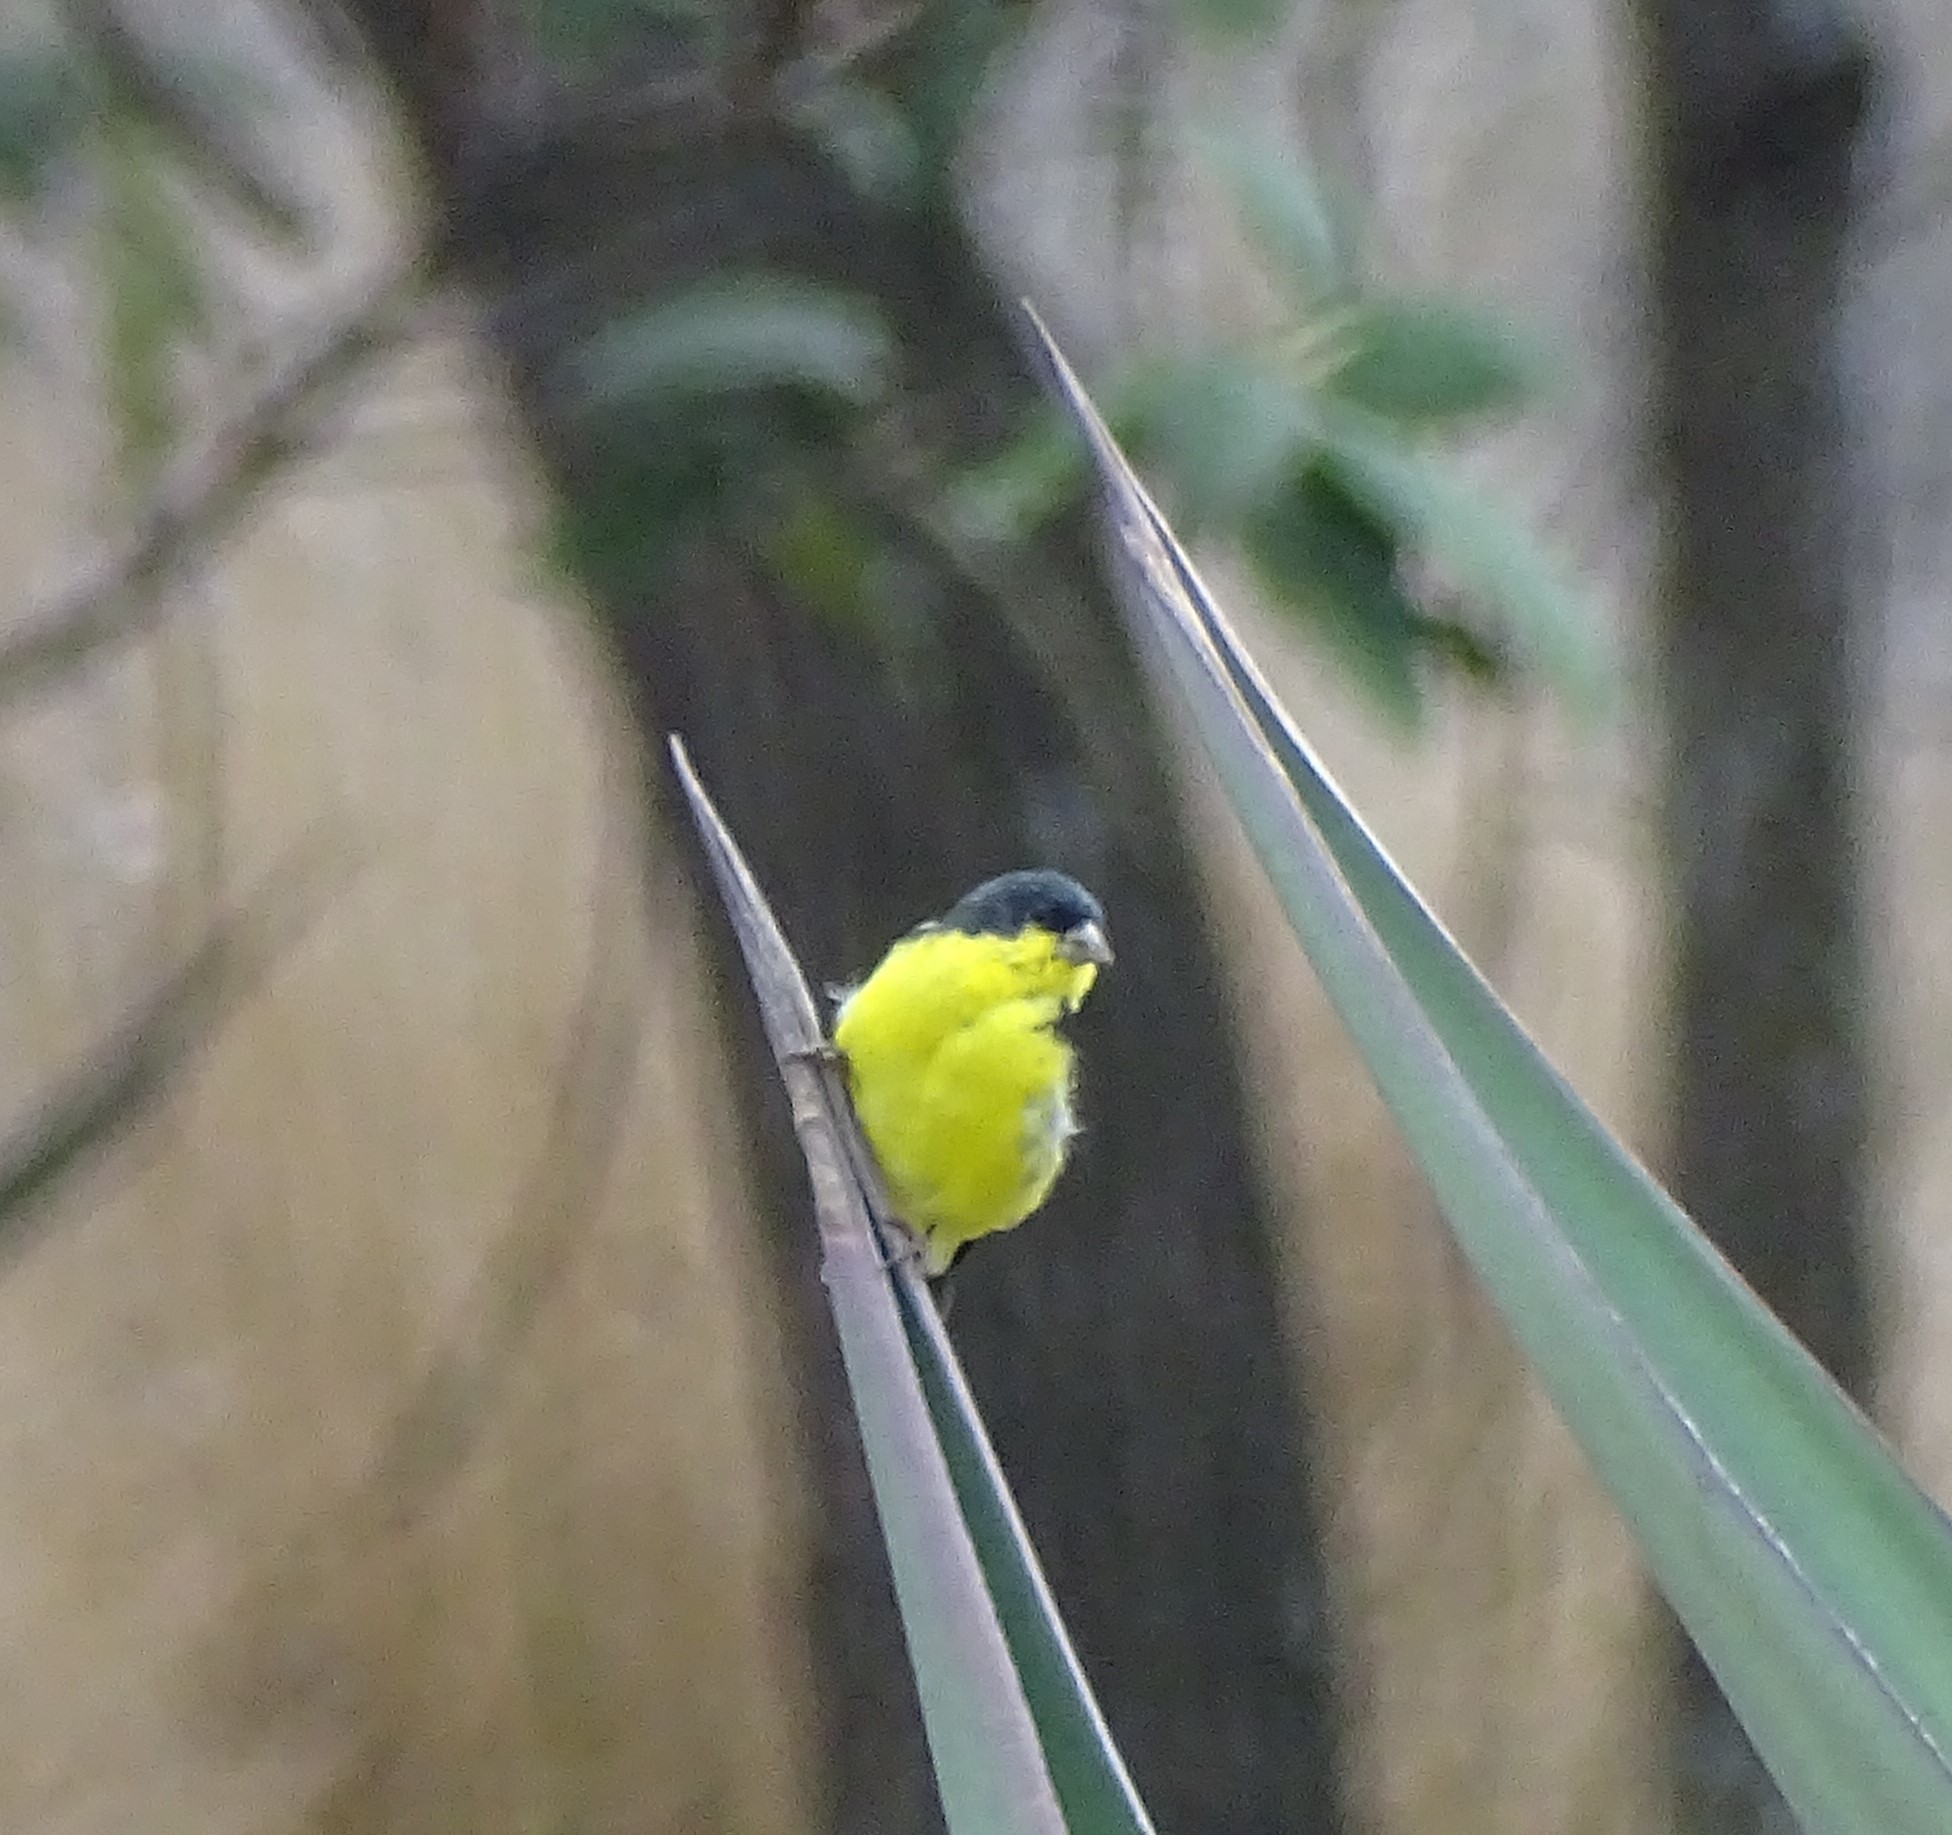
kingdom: Animalia
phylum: Chordata
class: Aves
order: Passeriformes
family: Fringillidae
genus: Spinus
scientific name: Spinus psaltria
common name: Lesser goldfinch
